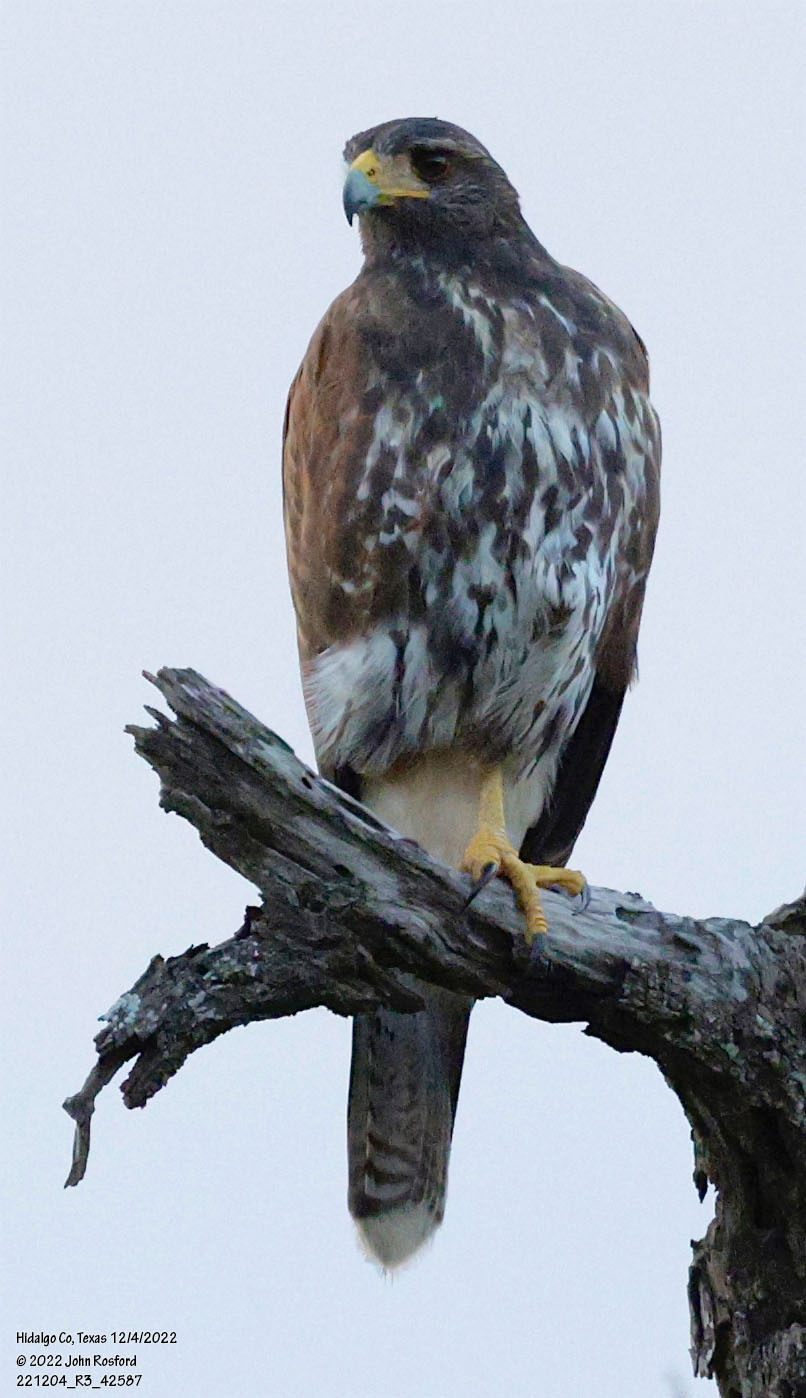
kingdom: Animalia
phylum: Chordata
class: Aves
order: Accipitriformes
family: Accipitridae
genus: Parabuteo
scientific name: Parabuteo unicinctus
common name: Harris's hawk
